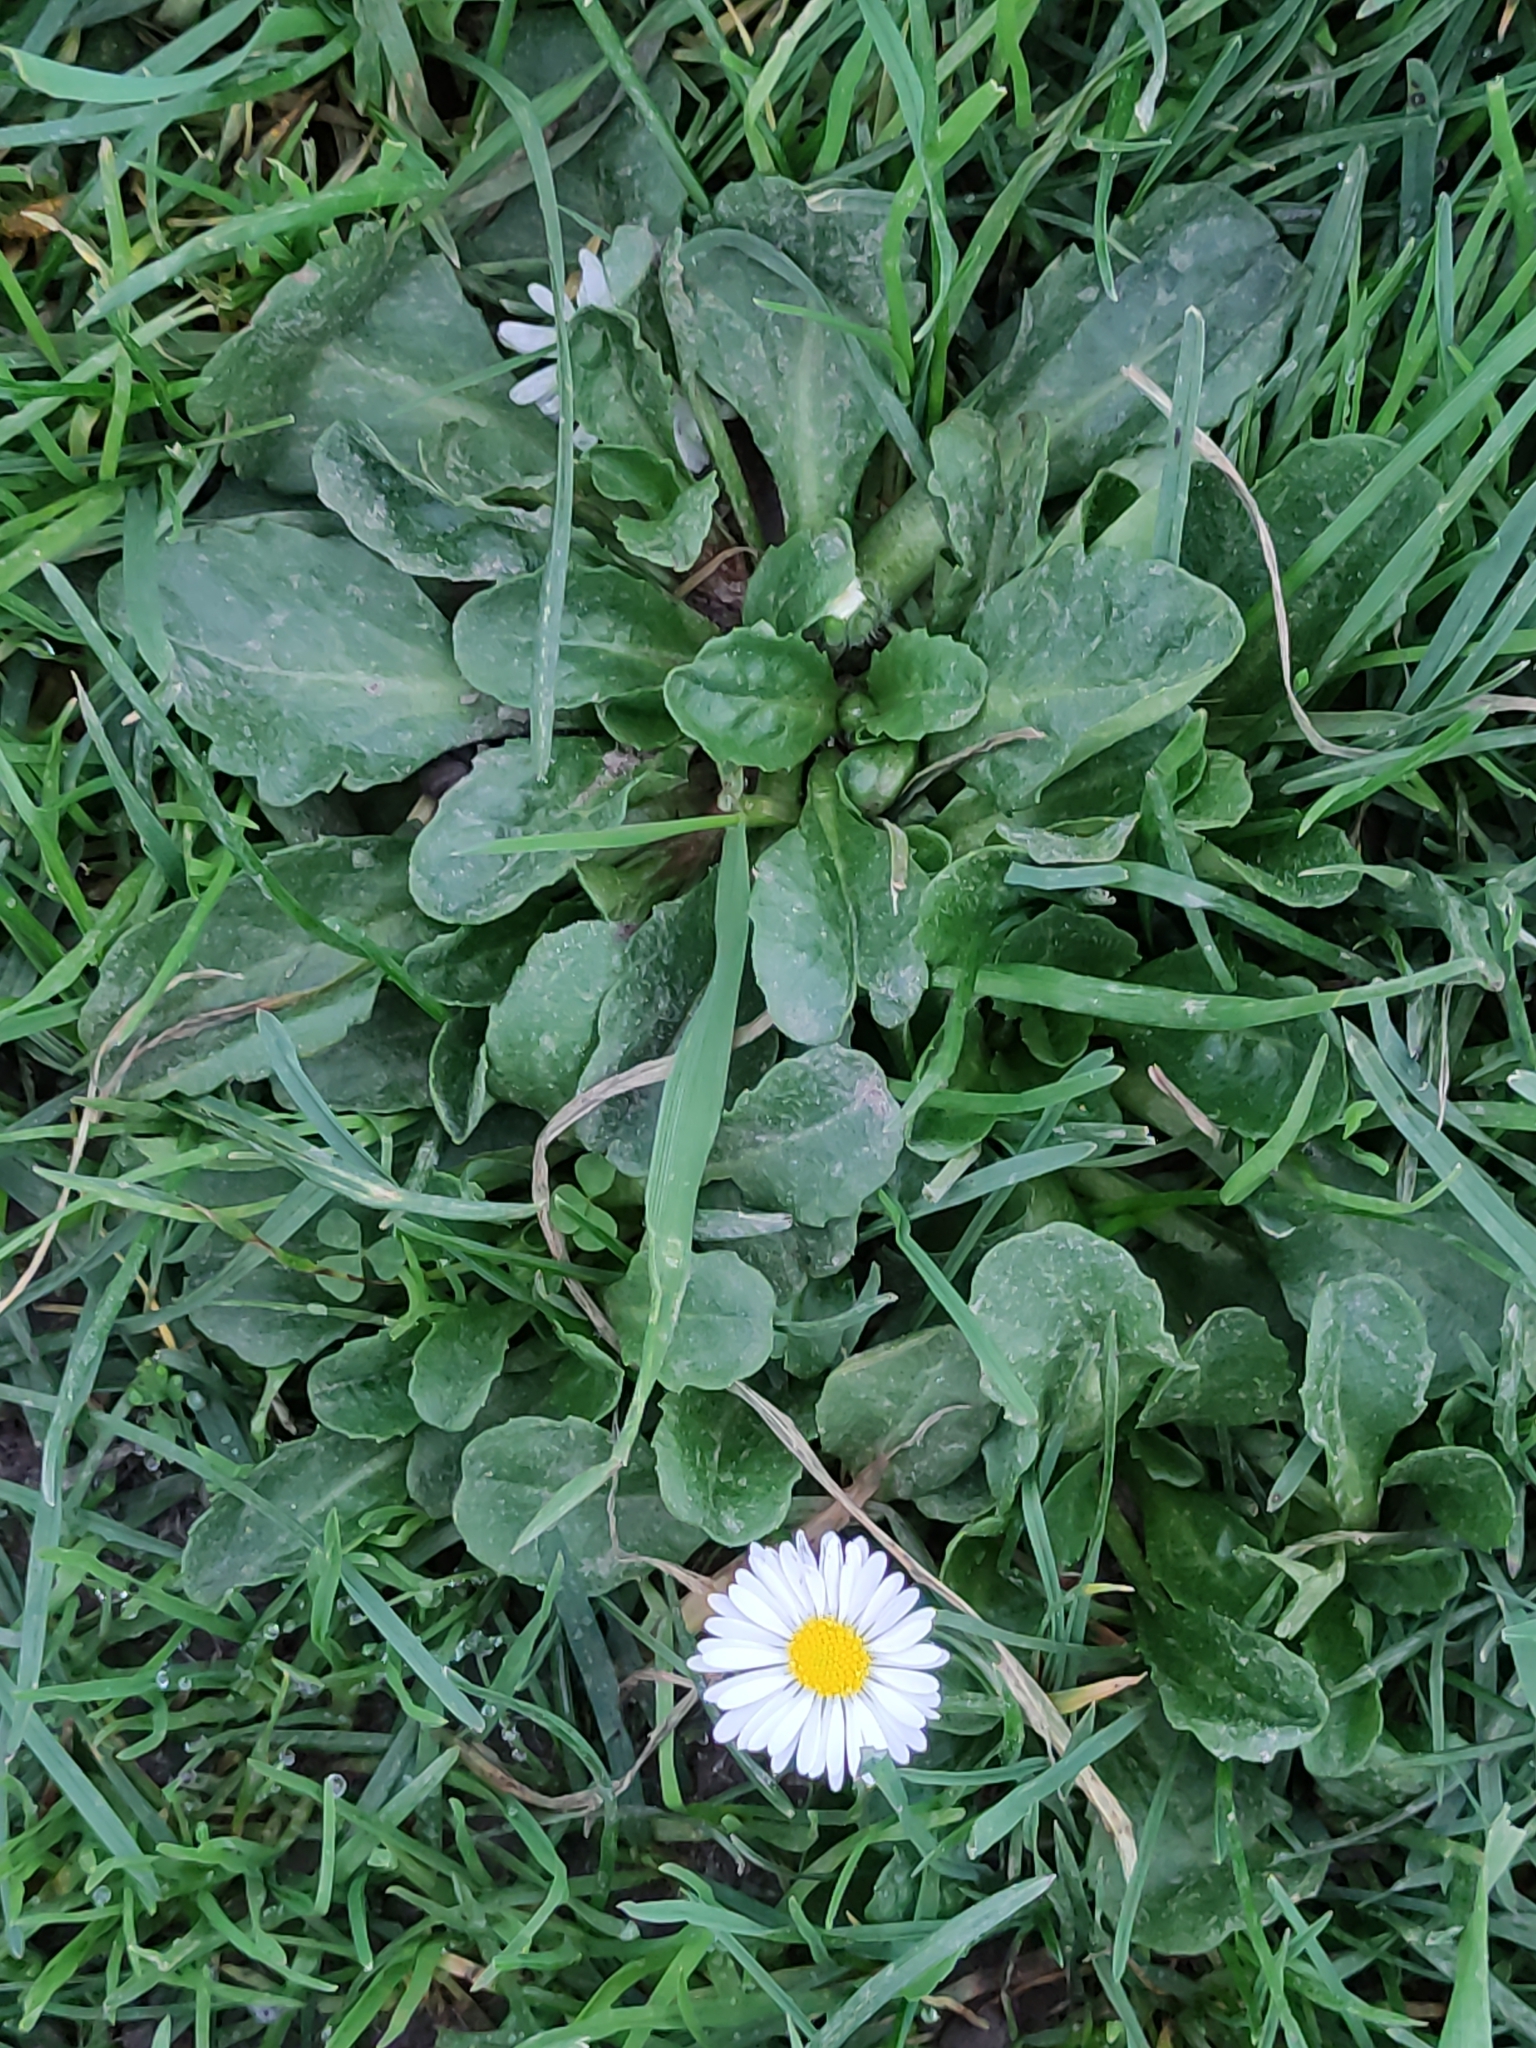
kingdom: Plantae
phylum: Tracheophyta
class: Magnoliopsida
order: Asterales
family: Asteraceae
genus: Bellis
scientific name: Bellis perennis
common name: Lawndaisy
